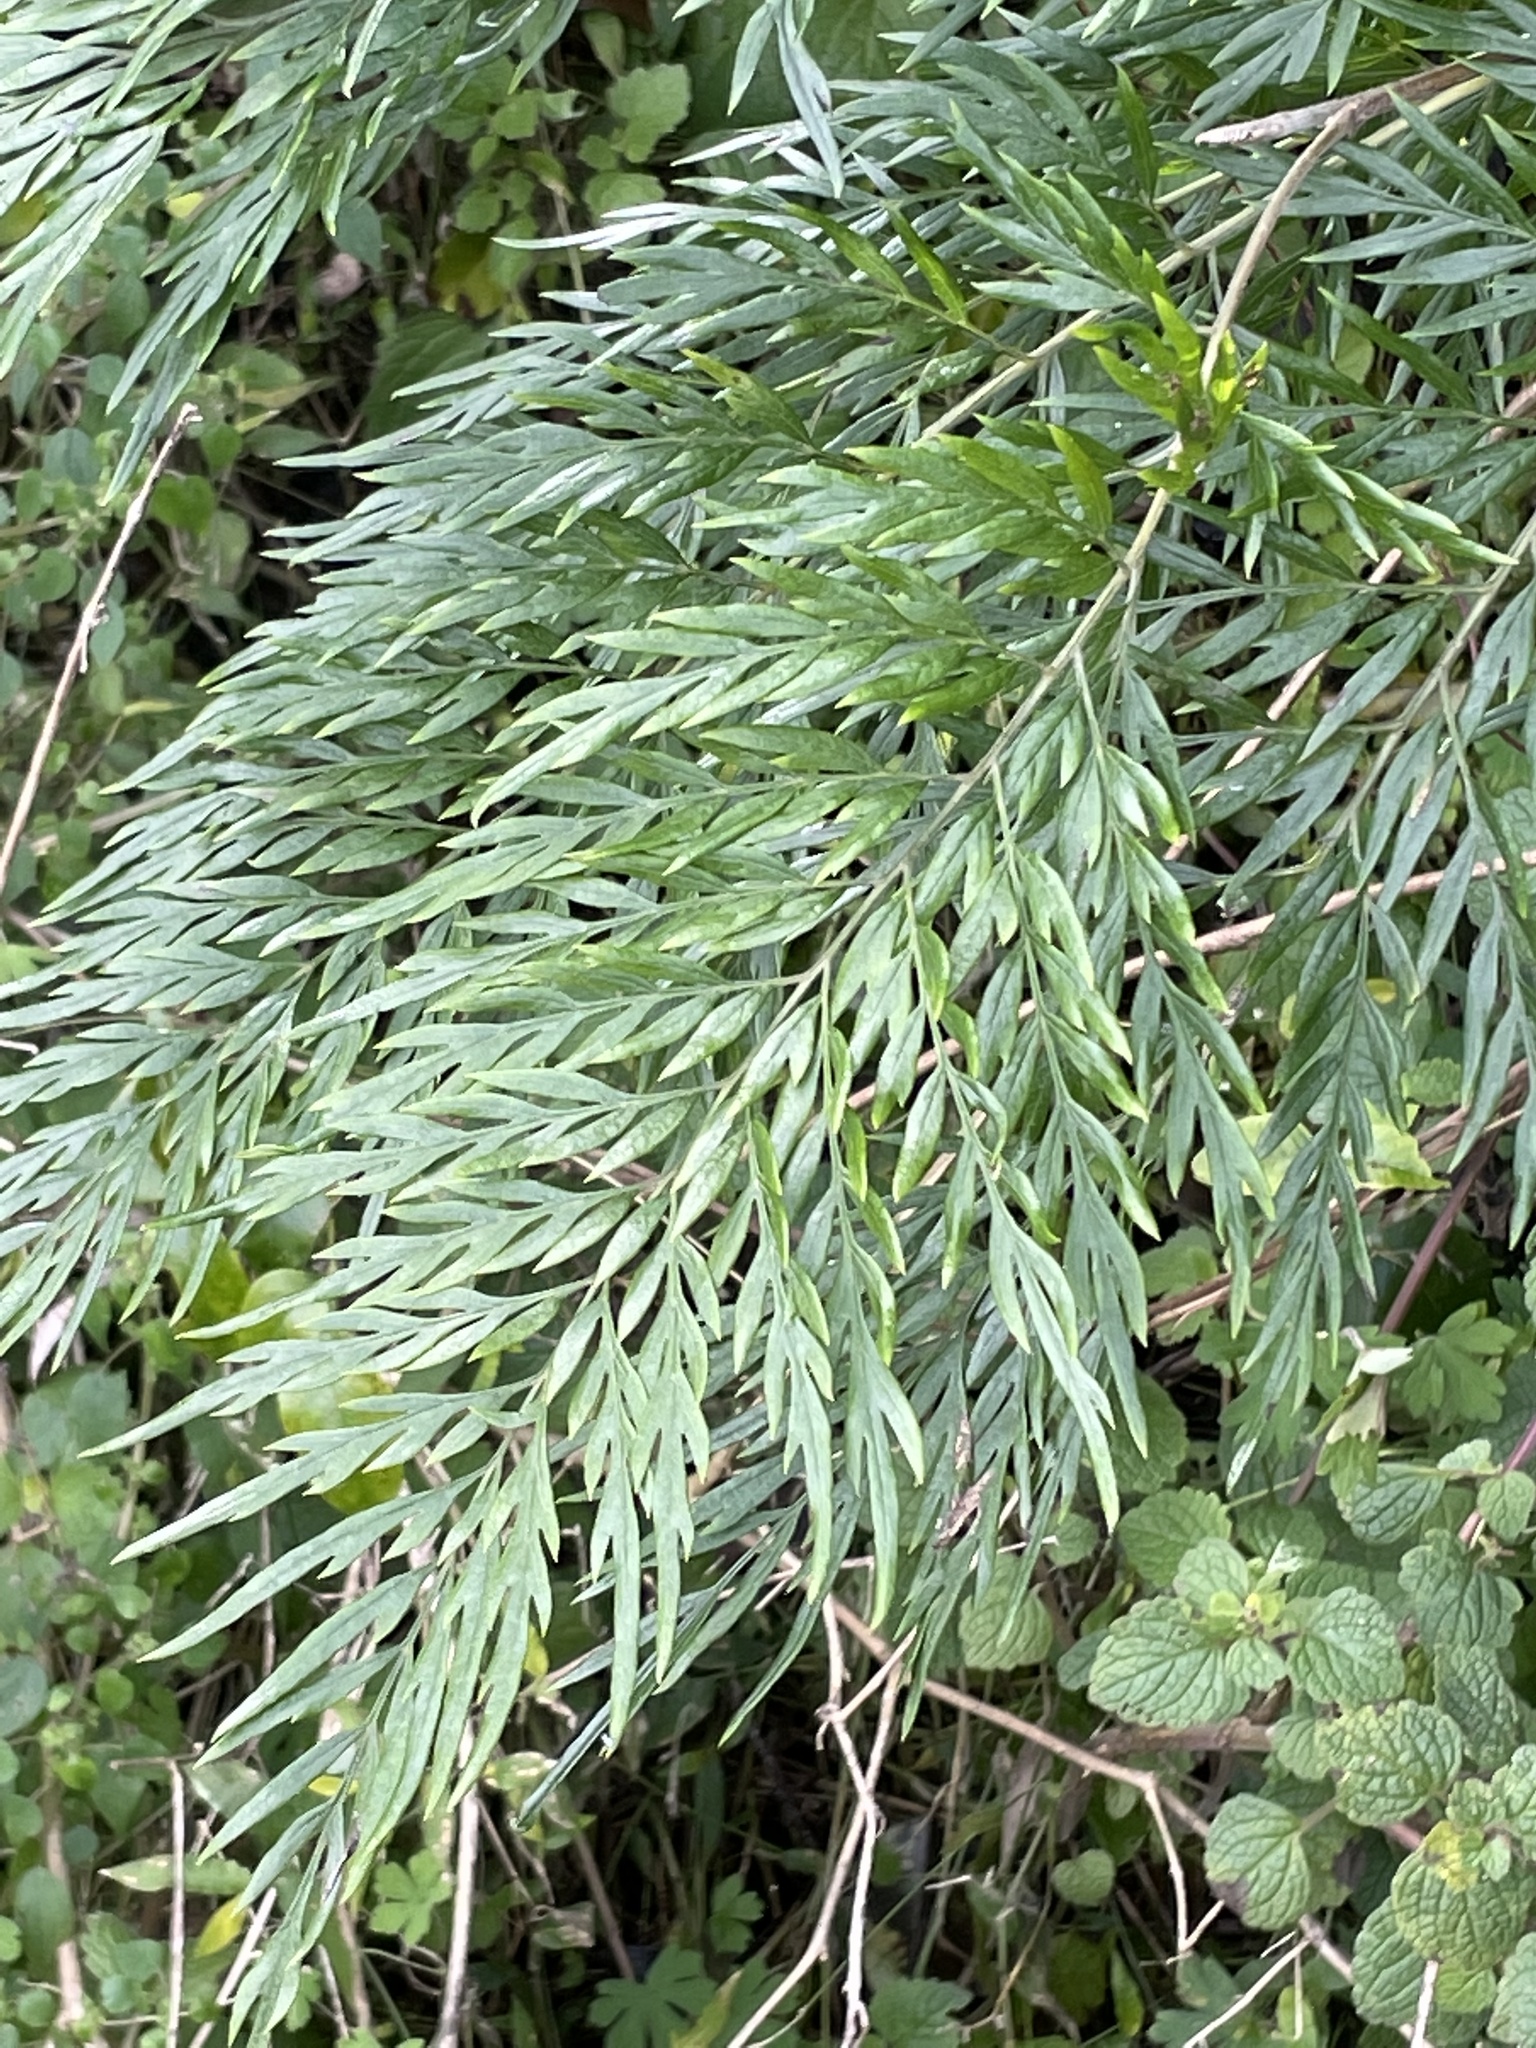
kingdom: Plantae
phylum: Tracheophyta
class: Magnoliopsida
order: Proteales
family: Proteaceae
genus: Grevillea
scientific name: Grevillea robusta
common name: Silkoak
